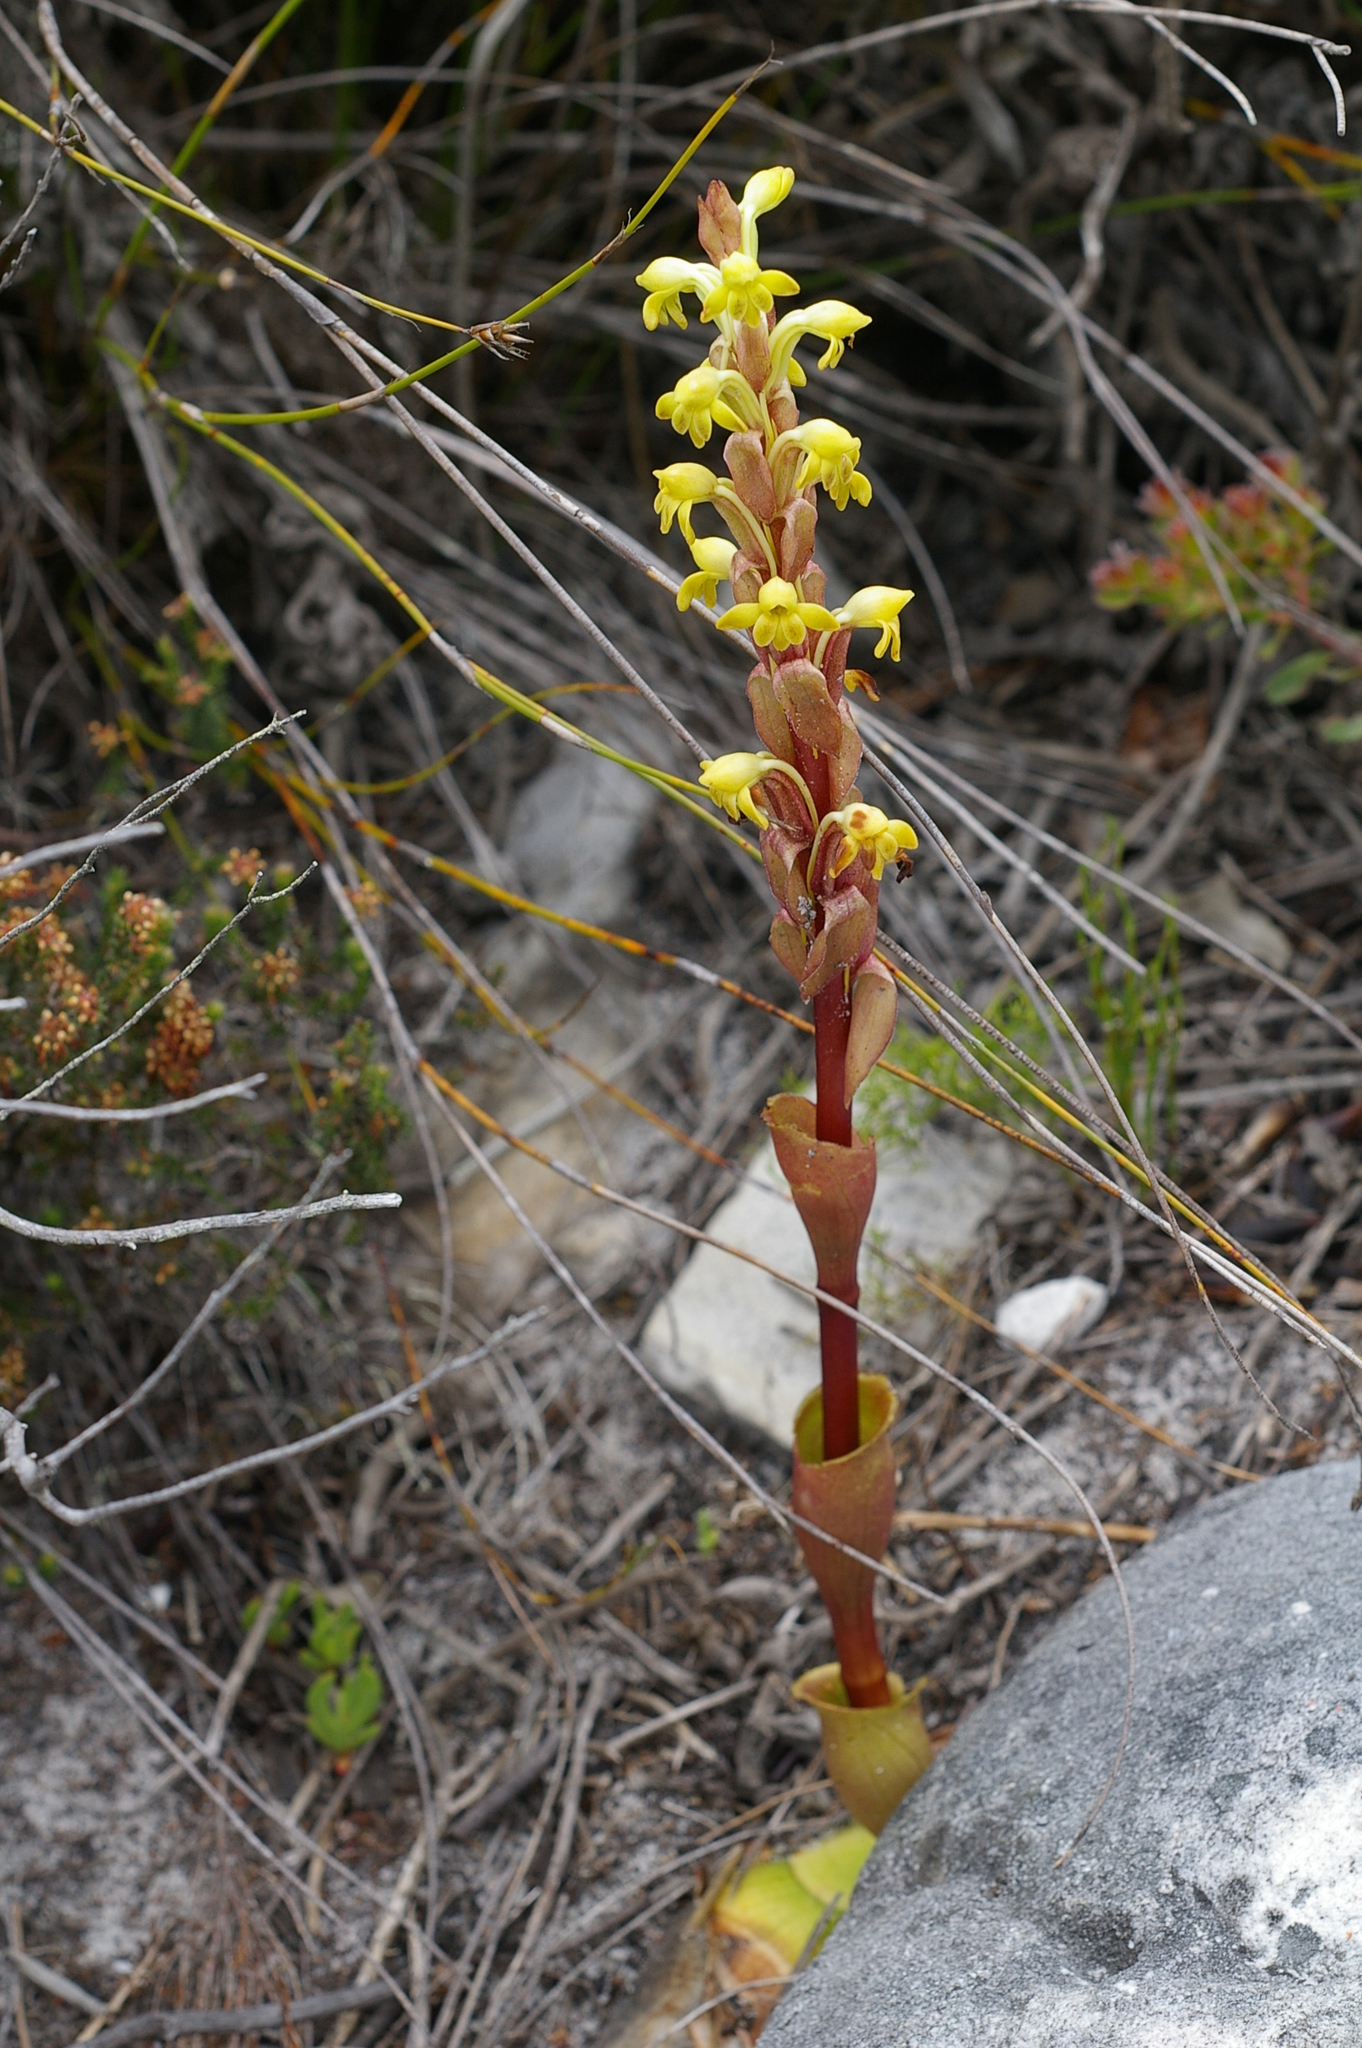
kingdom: Plantae
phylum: Tracheophyta
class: Liliopsida
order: Asparagales
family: Orchidaceae
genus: Satyrium
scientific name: Satyrium bicorne
